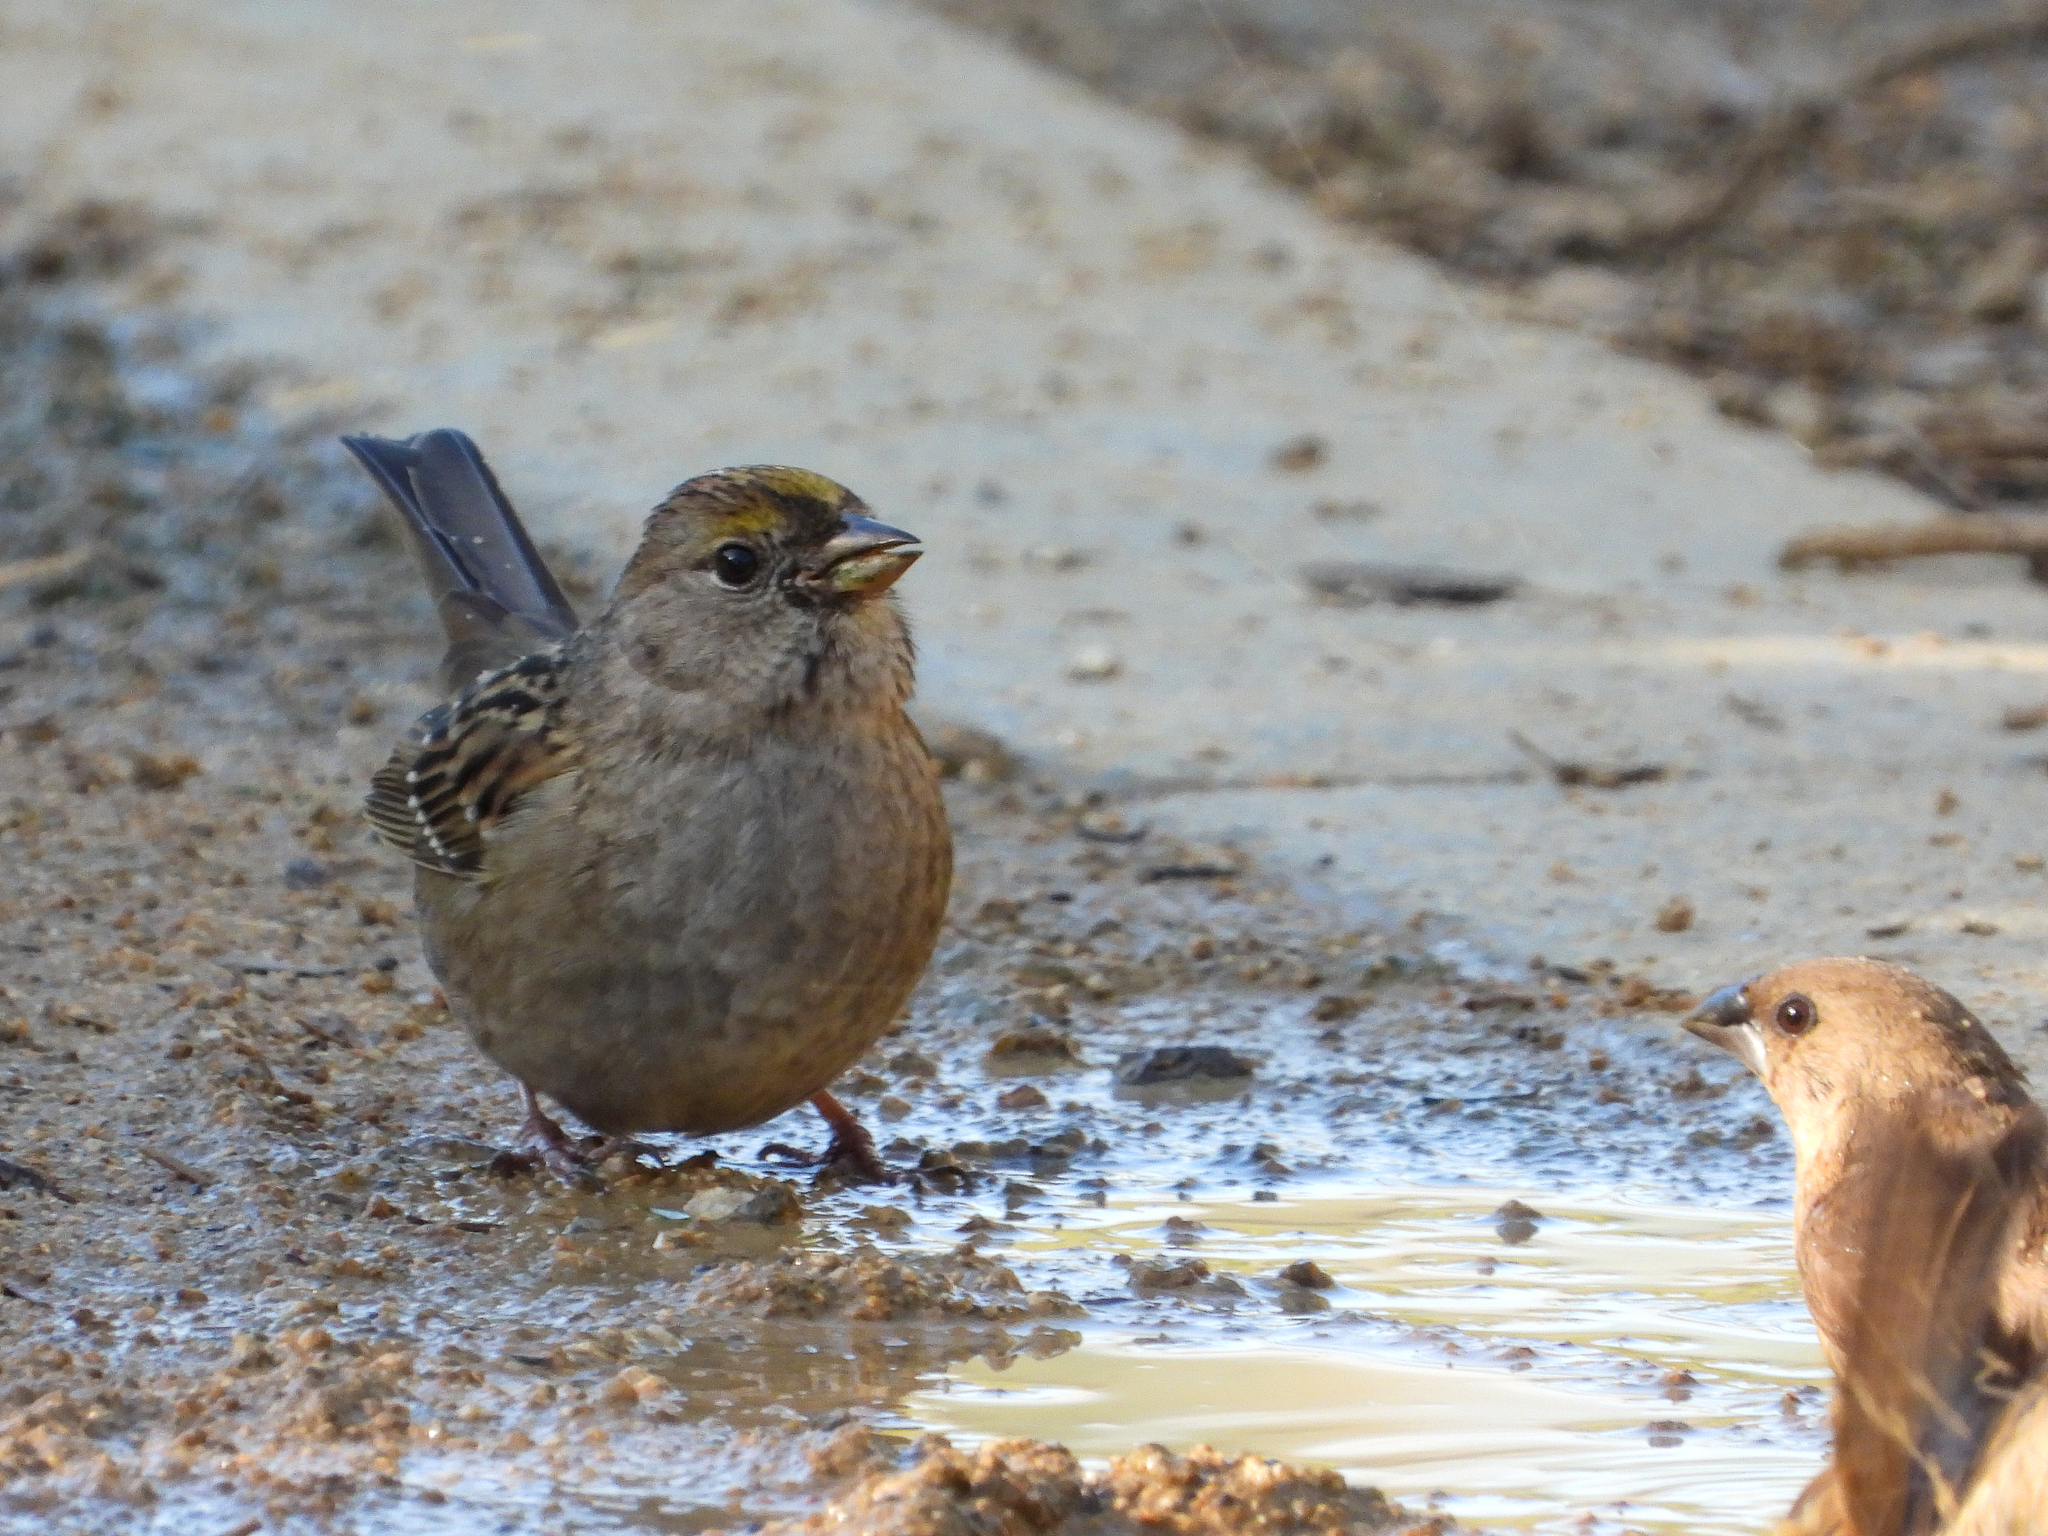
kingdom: Animalia
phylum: Chordata
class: Aves
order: Passeriformes
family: Passerellidae
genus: Zonotrichia
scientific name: Zonotrichia atricapilla
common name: Golden-crowned sparrow
